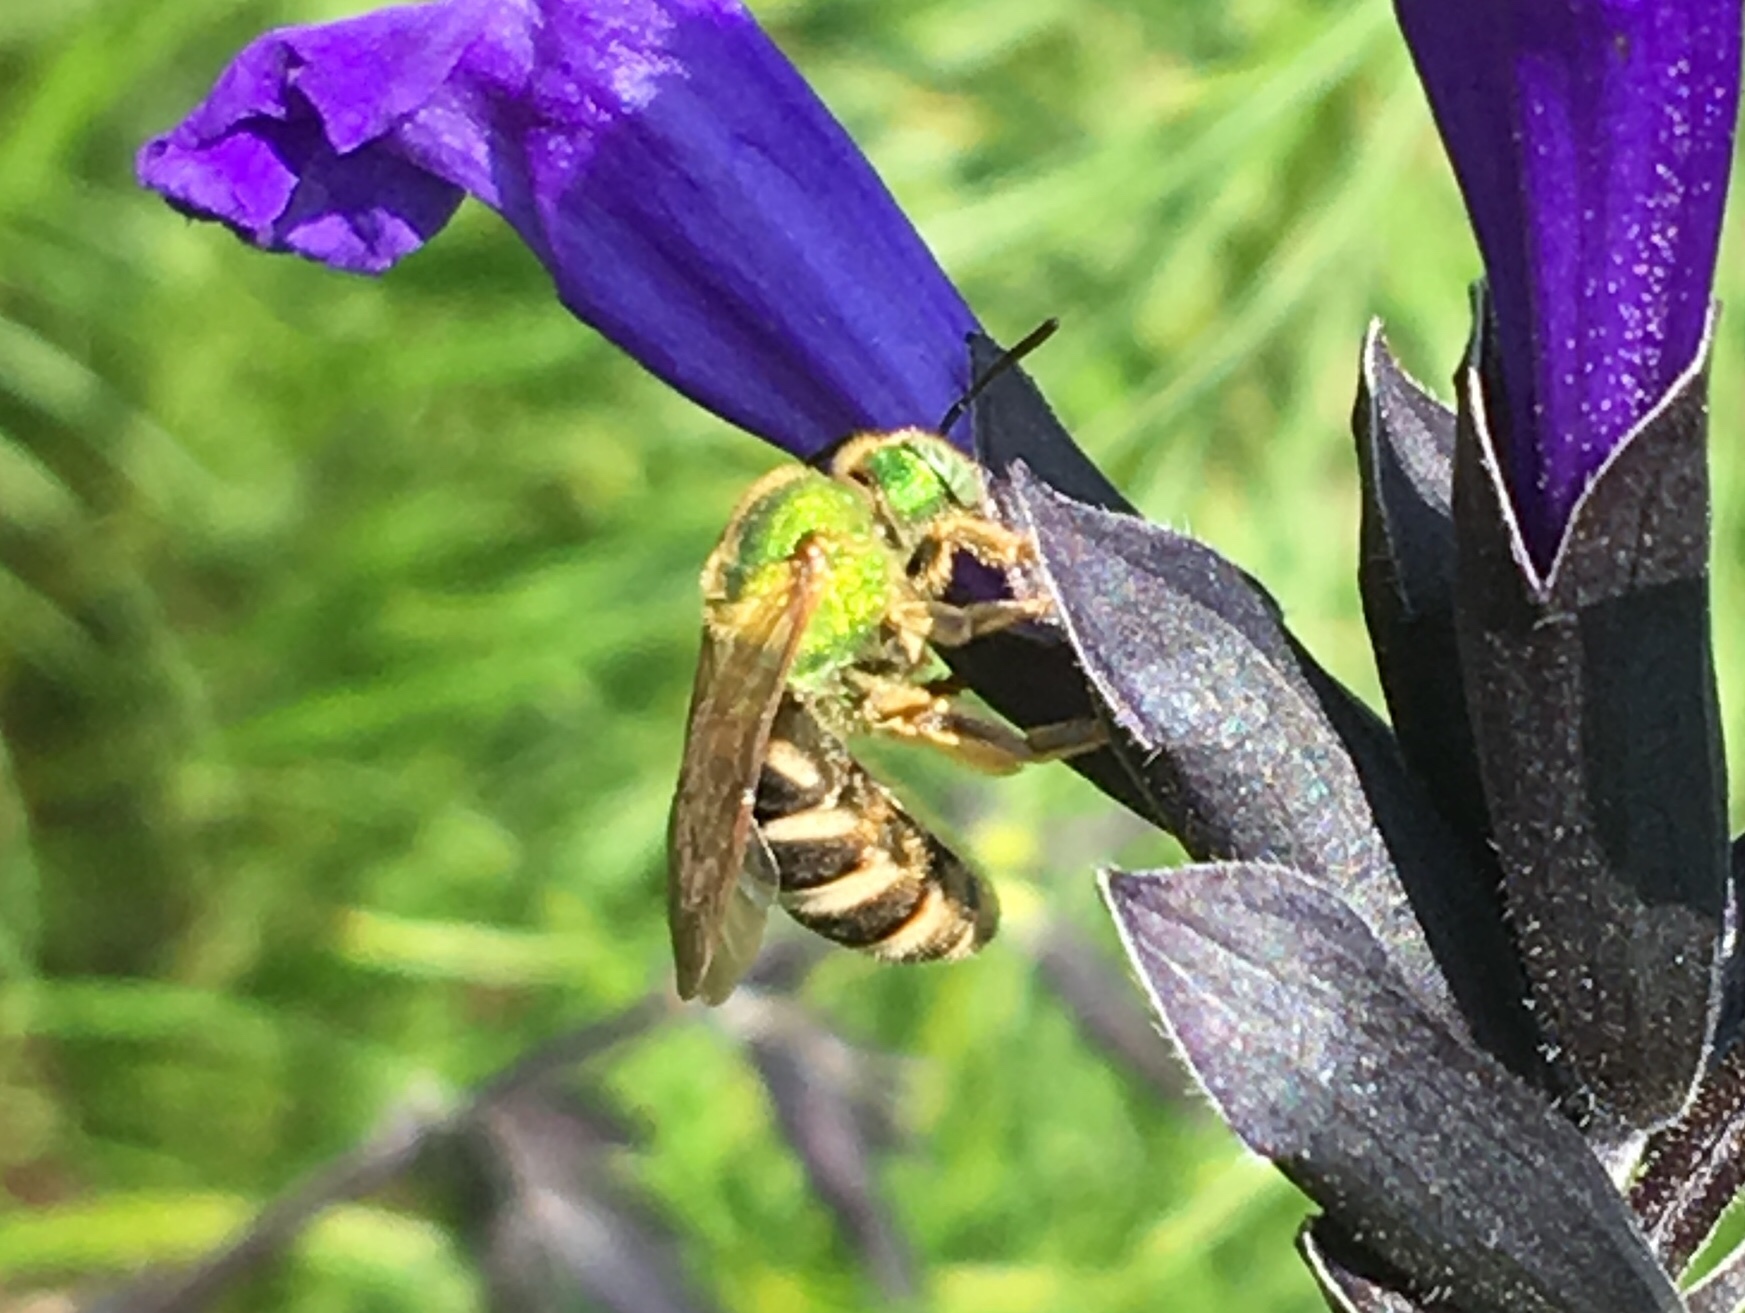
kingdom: Animalia
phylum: Arthropoda
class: Insecta
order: Hymenoptera
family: Halictidae
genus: Agapostemon
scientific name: Agapostemon virescens
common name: Bicolored striped sweat bee
